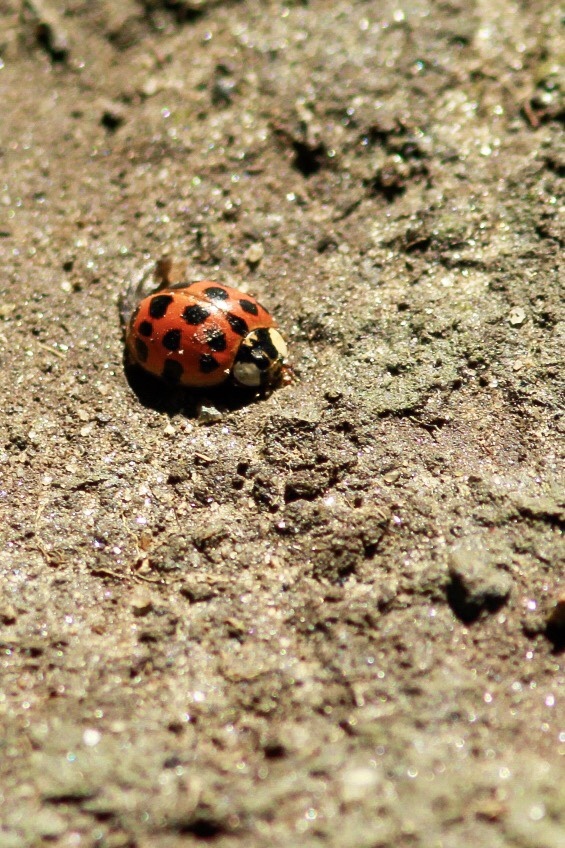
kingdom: Animalia
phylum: Arthropoda
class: Insecta
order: Coleoptera
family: Coccinellidae
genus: Harmonia
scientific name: Harmonia axyridis
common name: Harlequin ladybird
